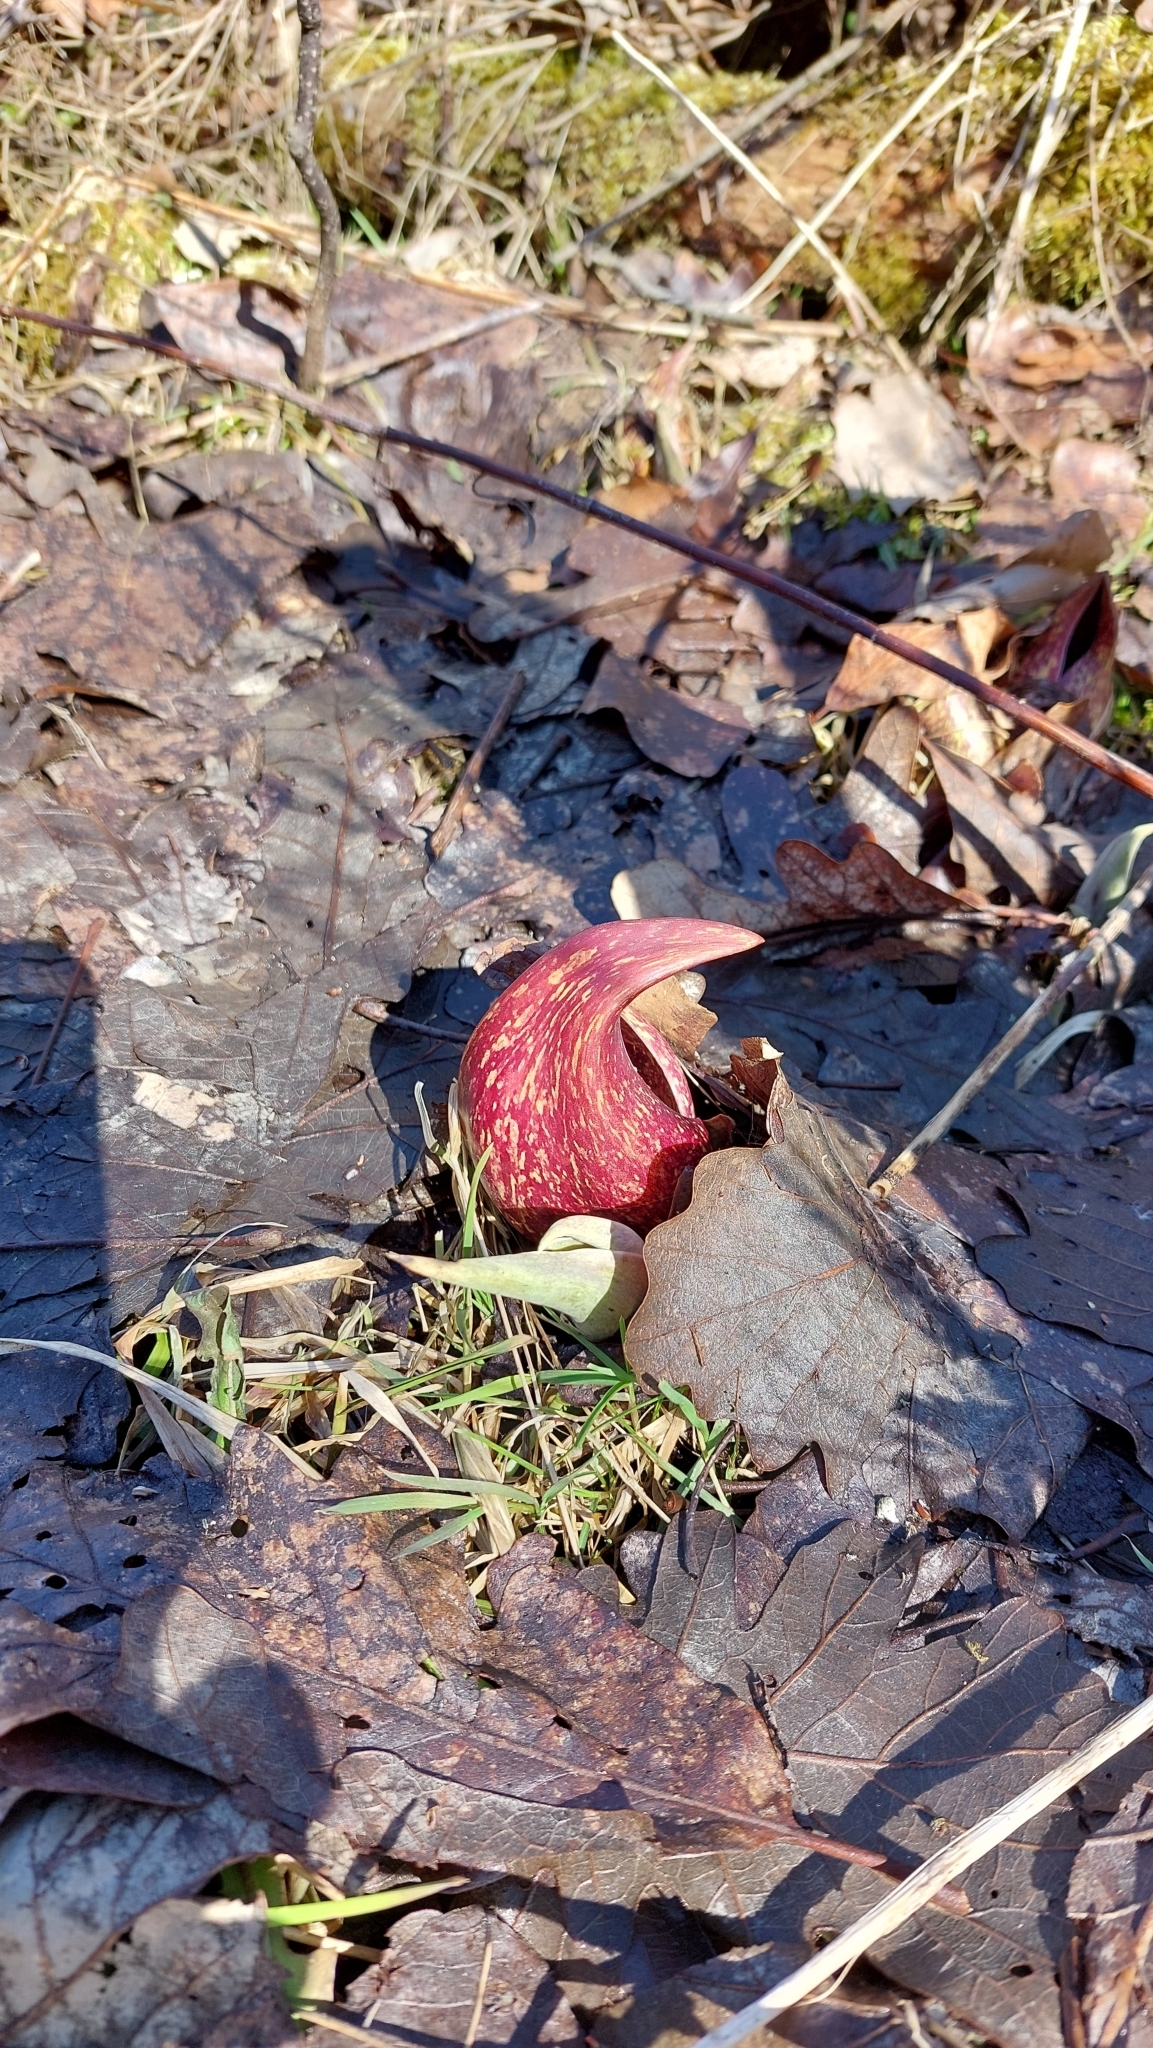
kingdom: Plantae
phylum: Tracheophyta
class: Liliopsida
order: Alismatales
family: Araceae
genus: Symplocarpus
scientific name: Symplocarpus foetidus
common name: Eastern skunk cabbage
